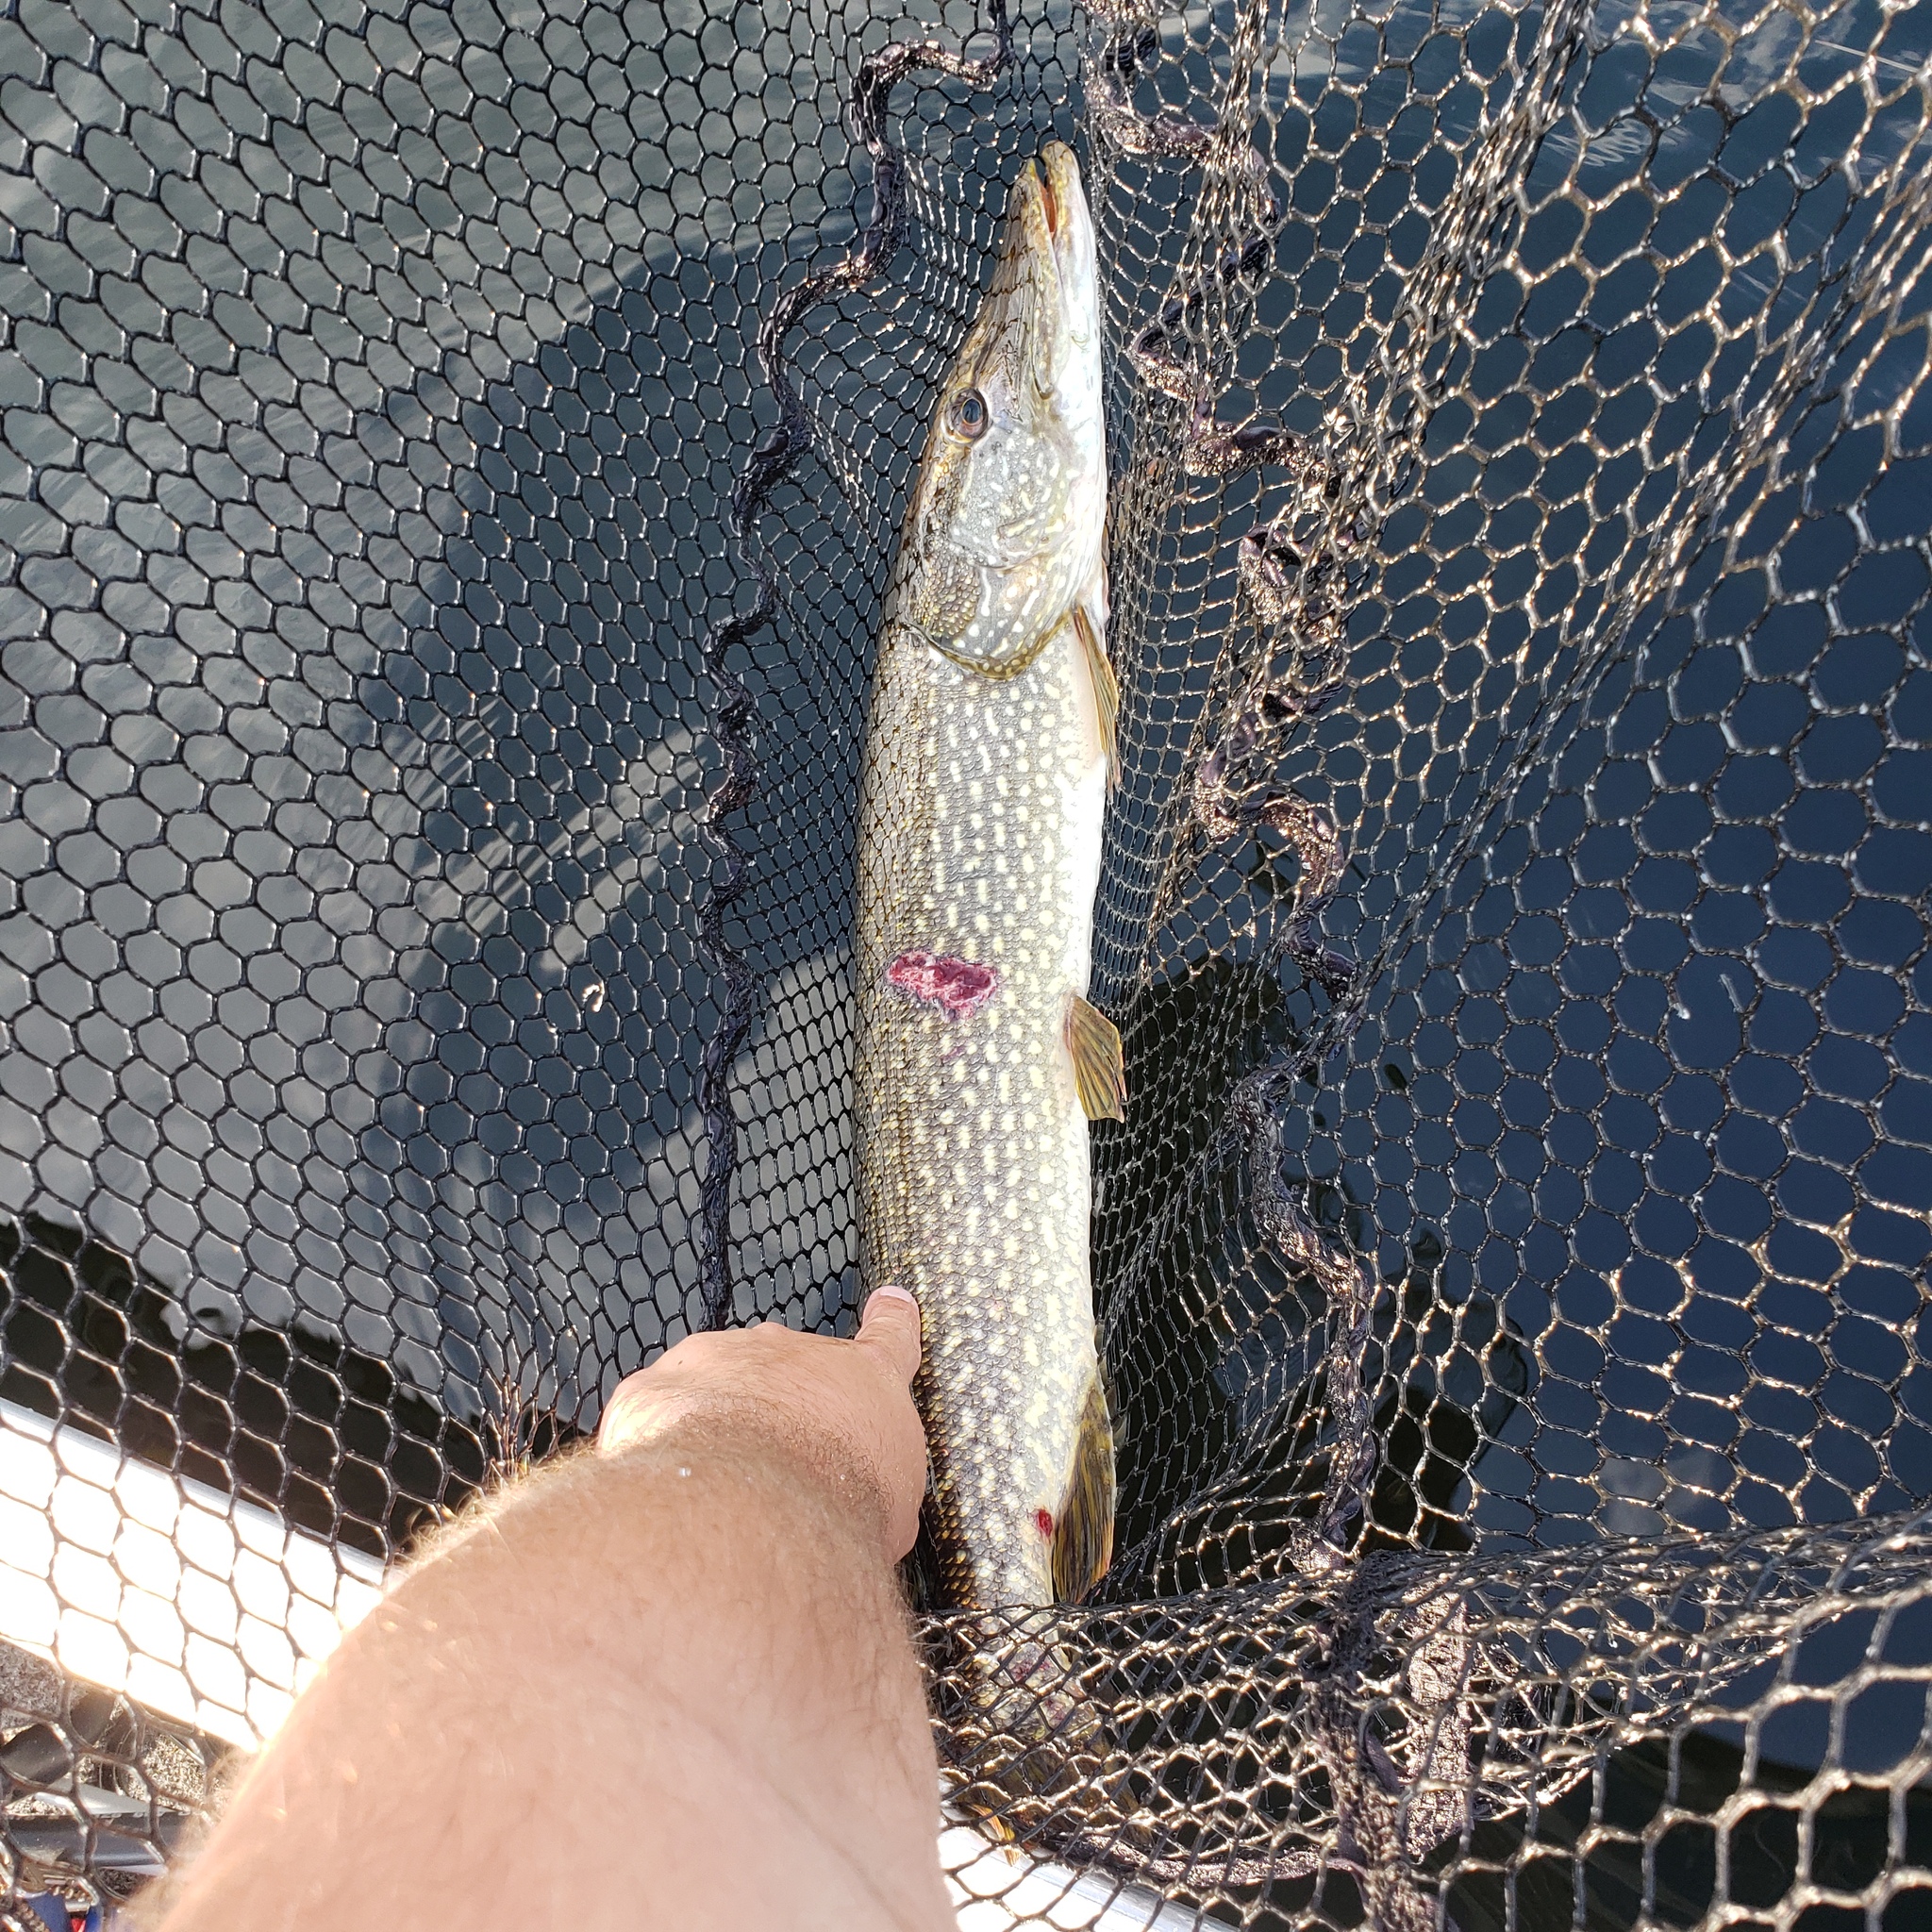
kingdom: Animalia
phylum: Chordata
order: Esociformes
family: Esocidae
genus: Esox
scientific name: Esox lucius
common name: Northern pike
